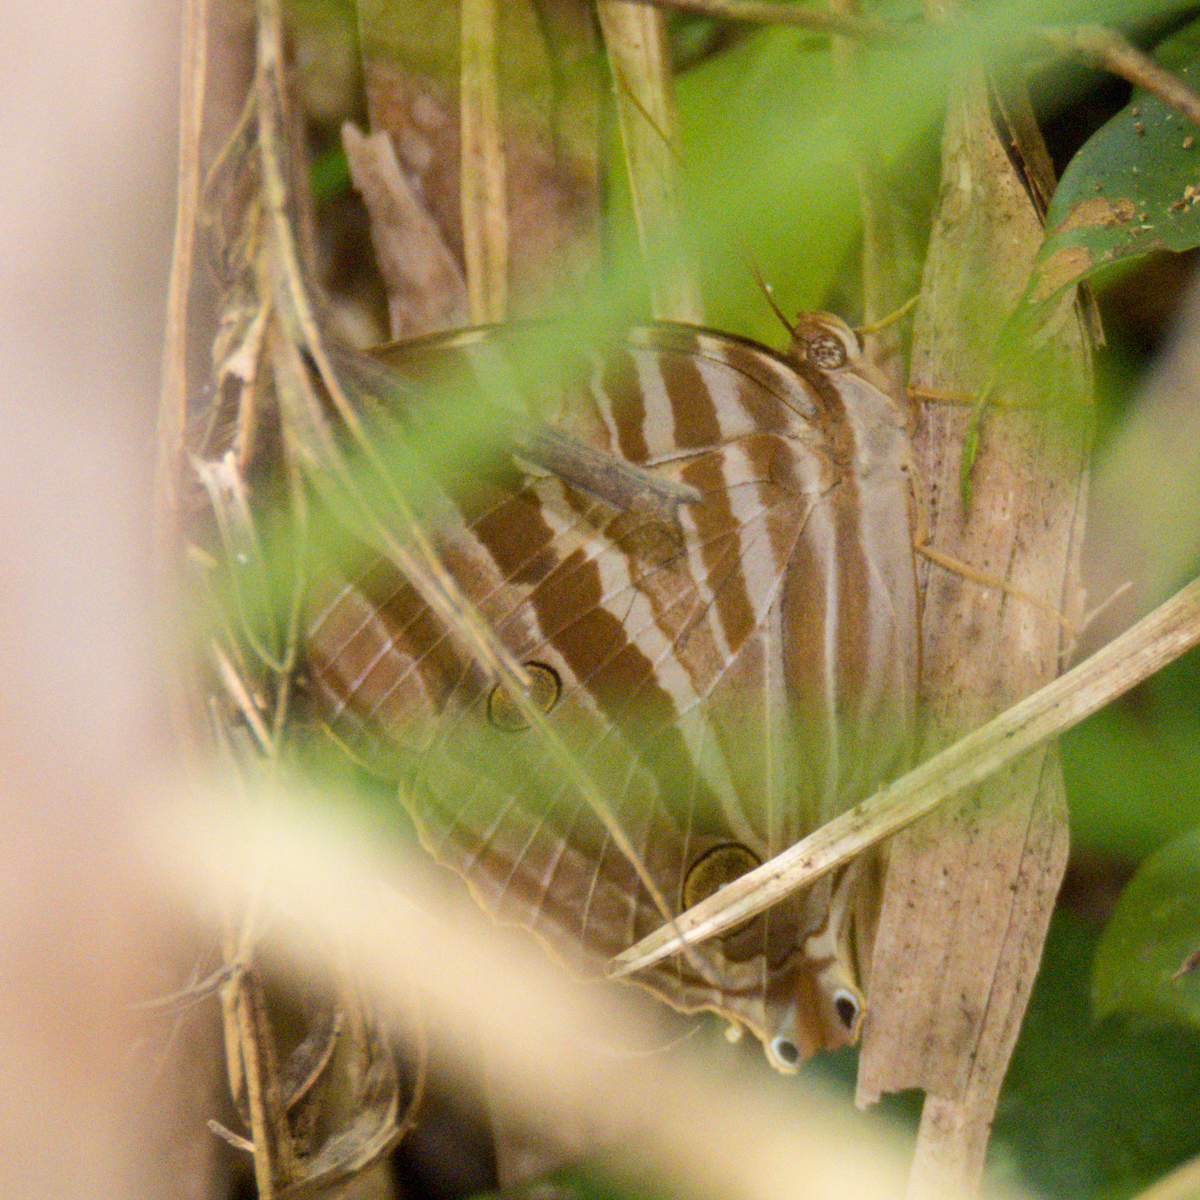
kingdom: Animalia
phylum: Arthropoda
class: Insecta
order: Lepidoptera
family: Nymphalidae
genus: Amathusia
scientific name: Amathusia phidippus
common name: Palm king
